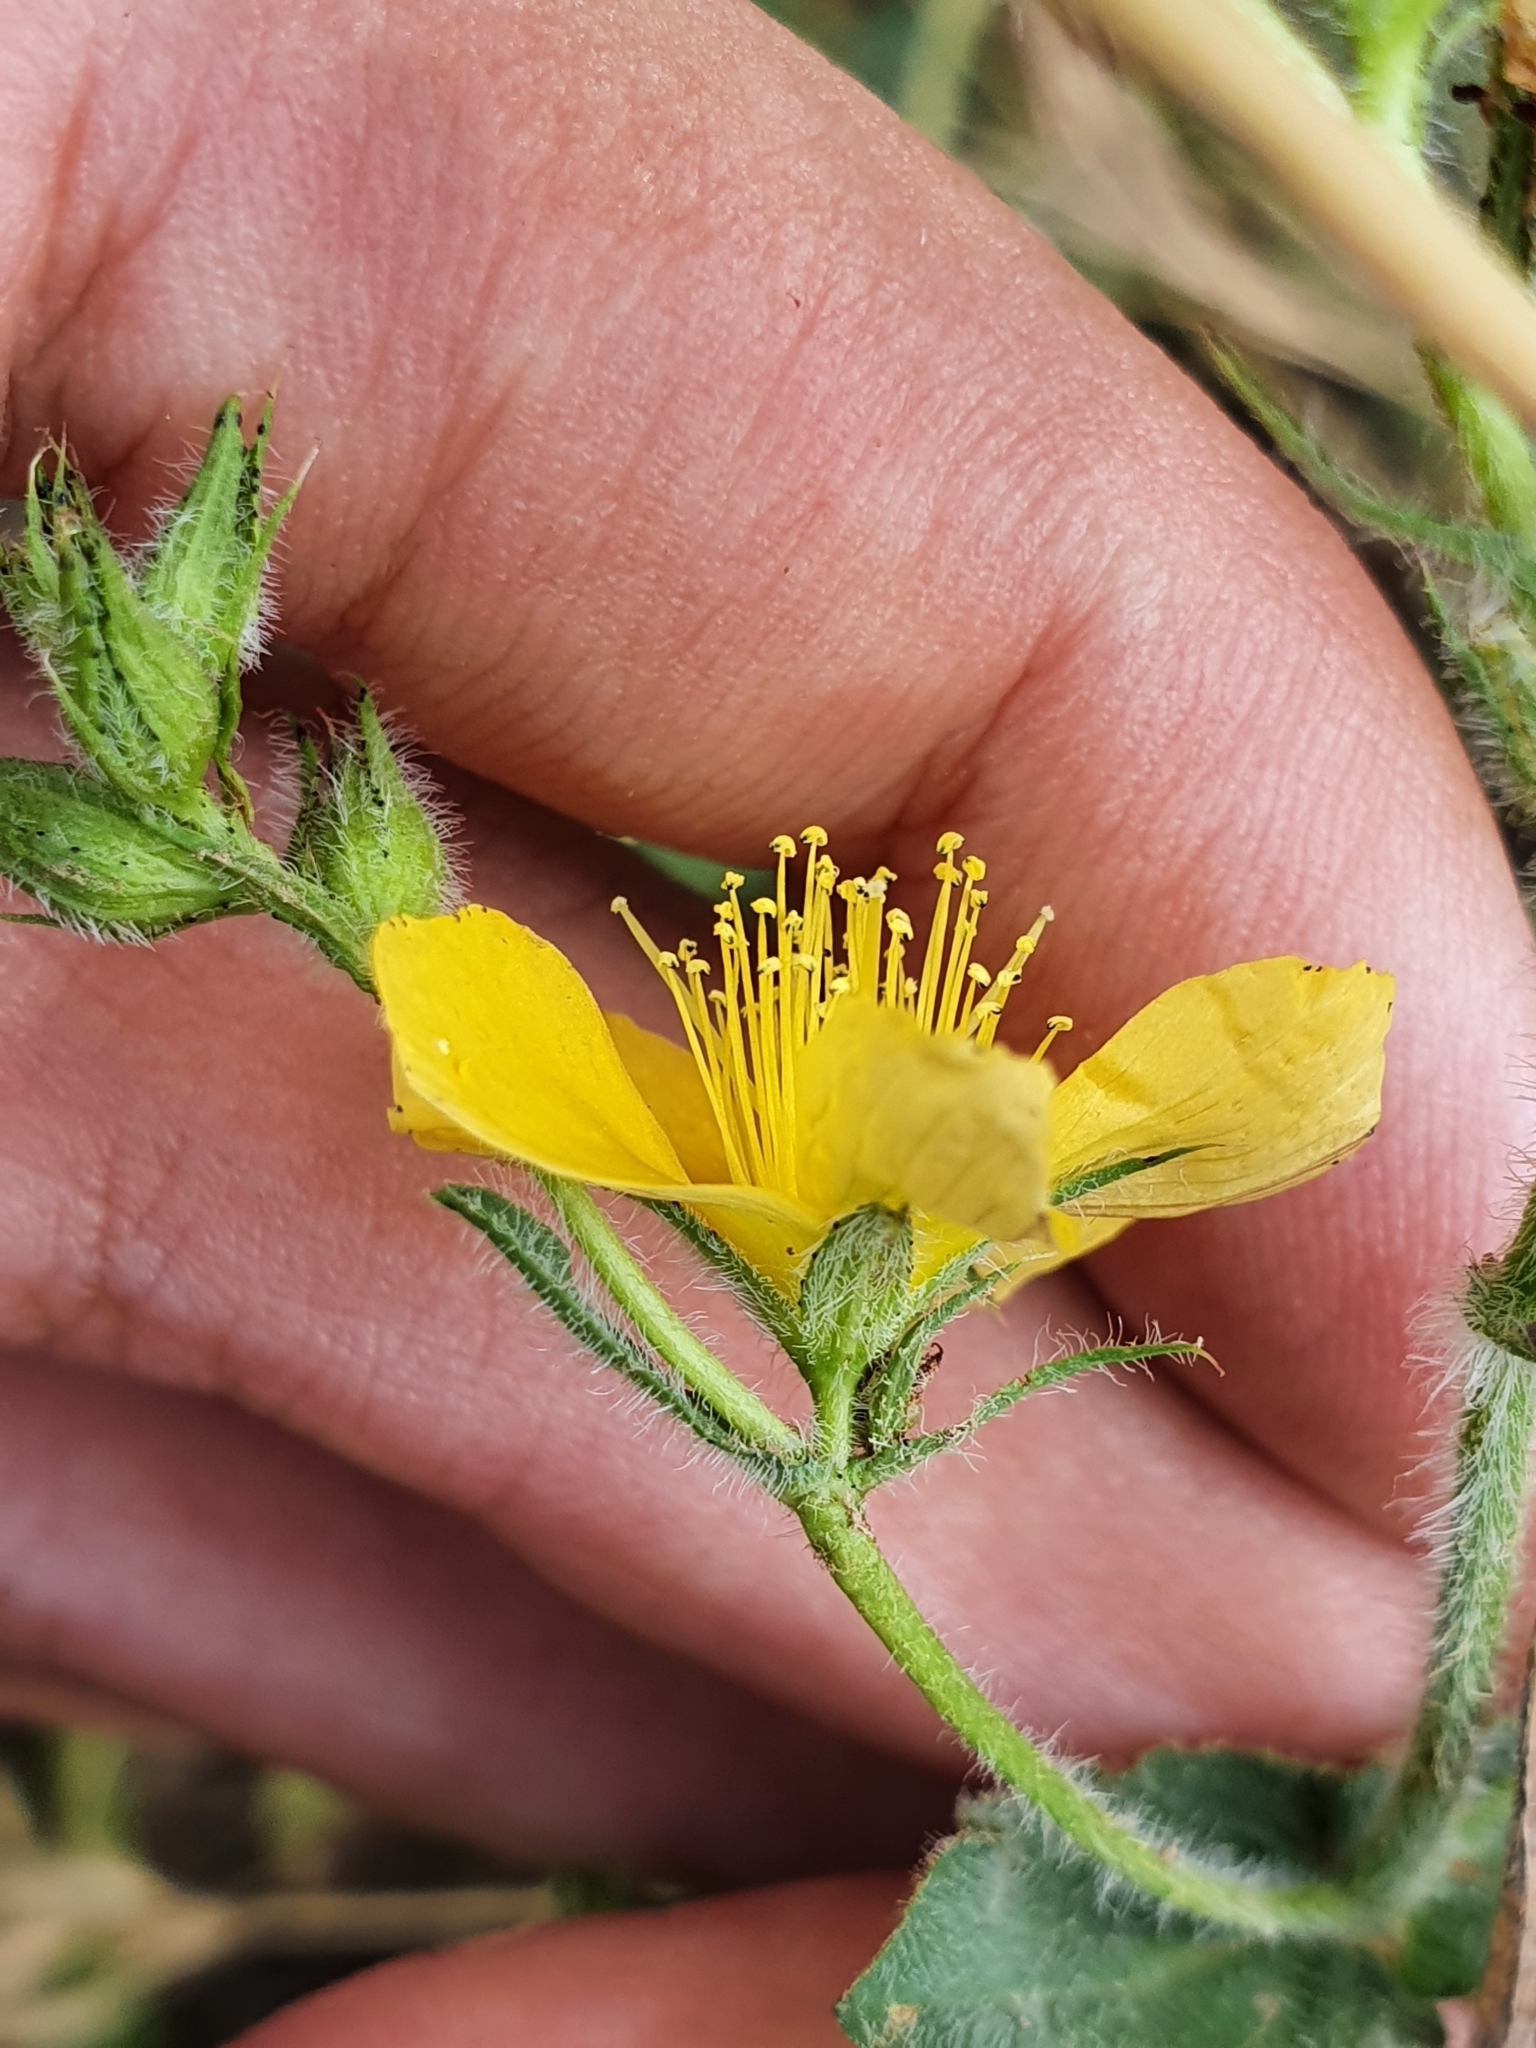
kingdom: Plantae
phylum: Tracheophyta
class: Magnoliopsida
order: Malpighiales
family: Hypericaceae
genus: Hypericum
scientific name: Hypericum pubescens
